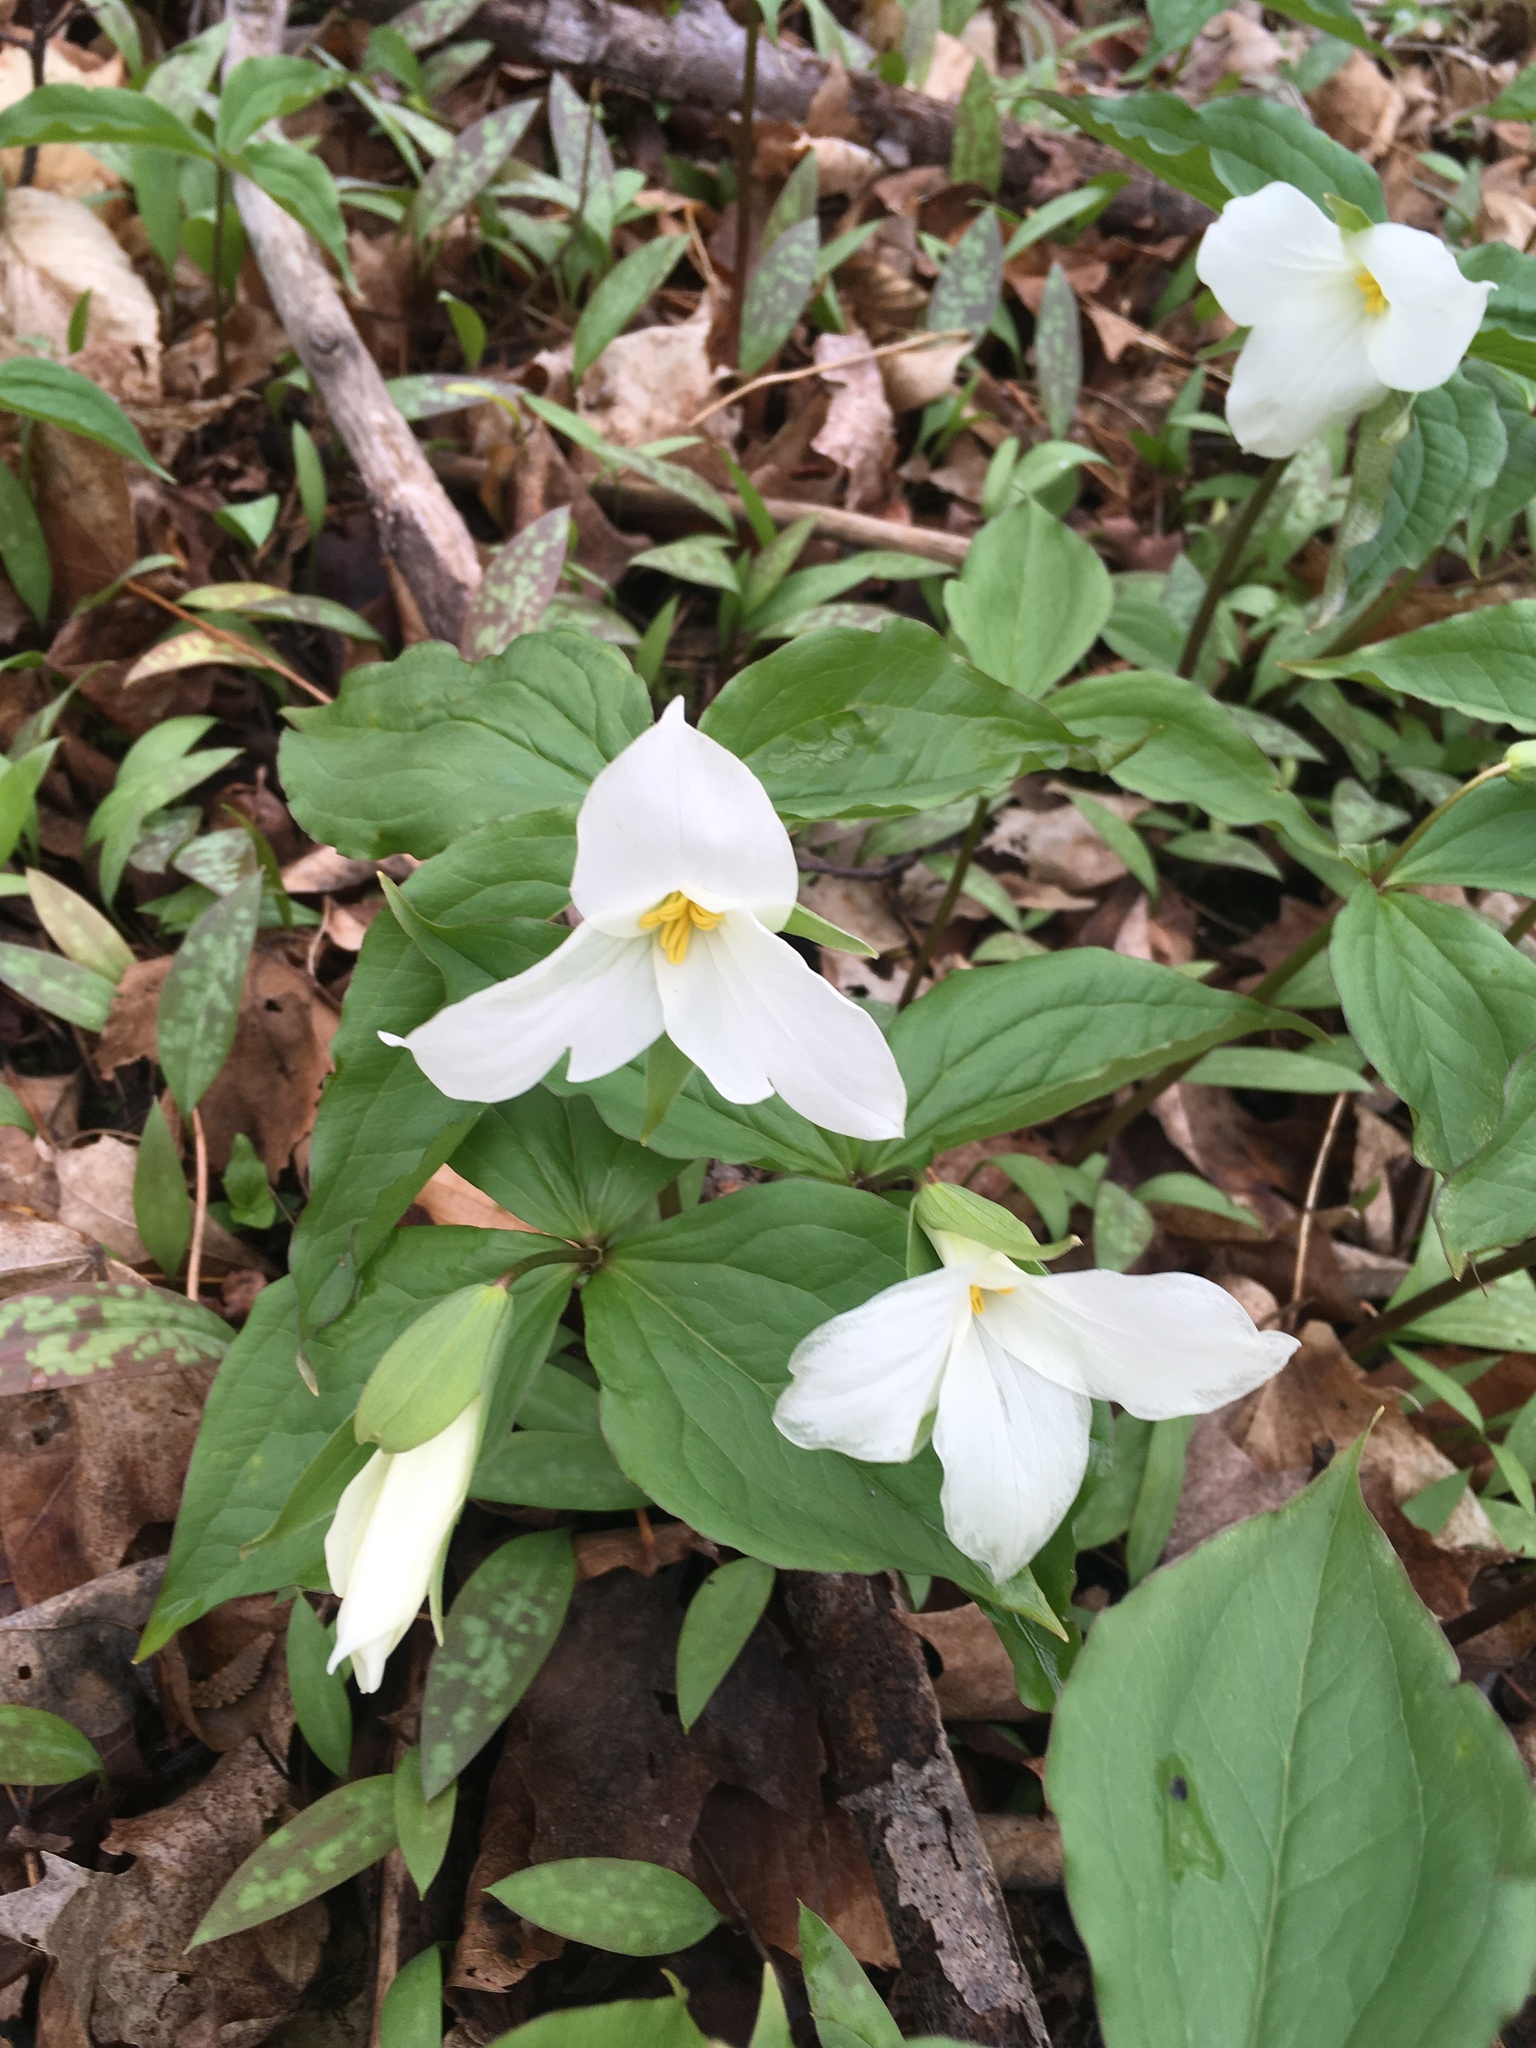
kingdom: Plantae
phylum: Tracheophyta
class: Liliopsida
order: Liliales
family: Melanthiaceae
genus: Trillium
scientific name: Trillium grandiflorum
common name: Great white trillium
